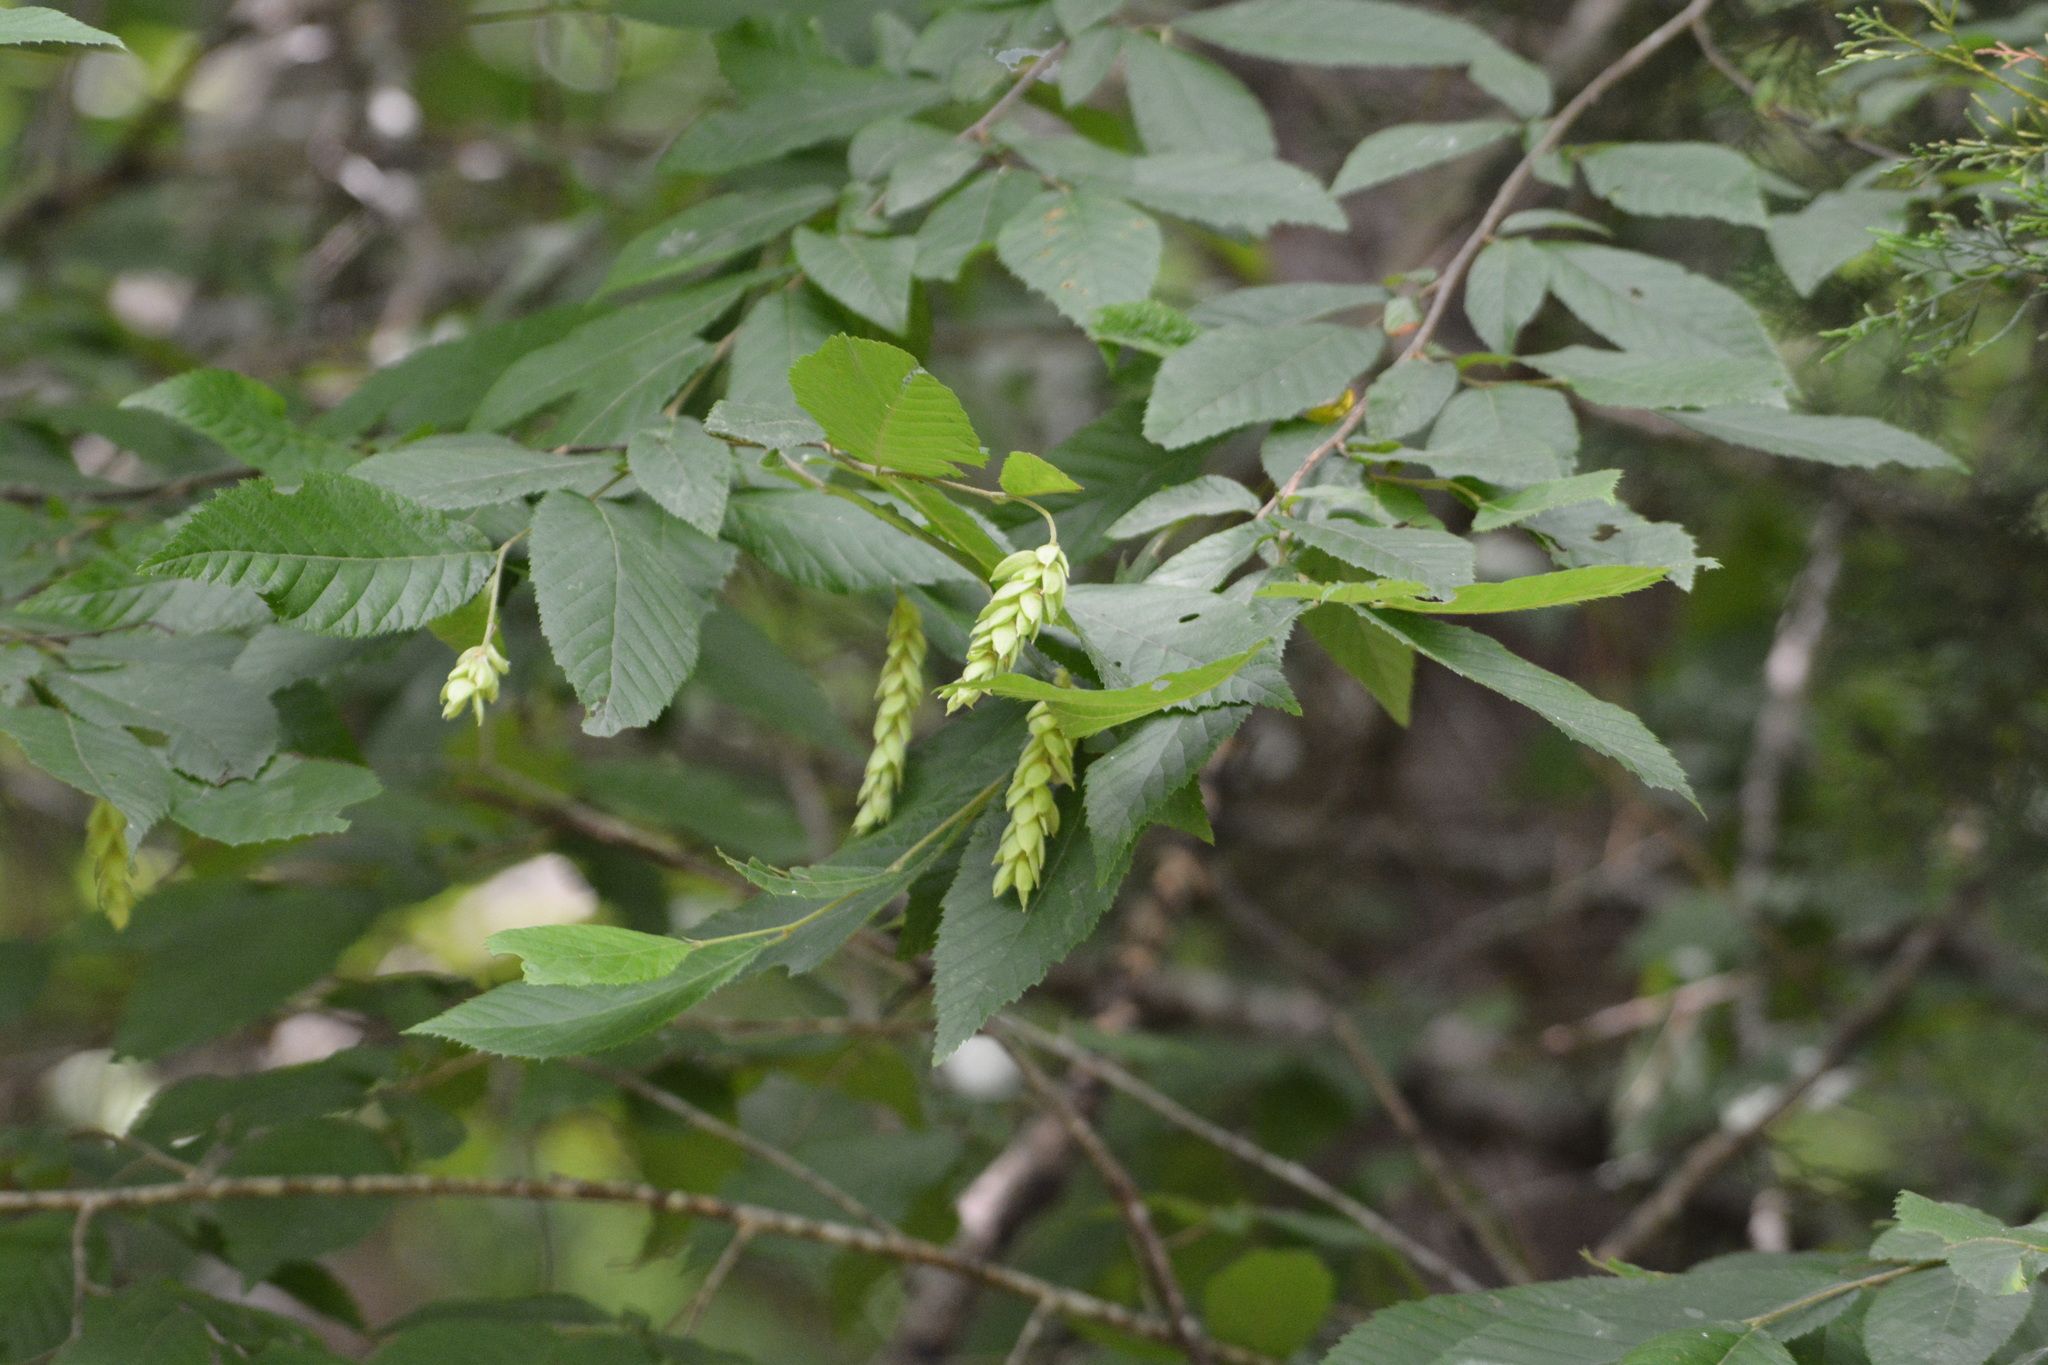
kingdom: Plantae
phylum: Tracheophyta
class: Magnoliopsida
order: Fagales
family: Betulaceae
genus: Ostrya
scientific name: Ostrya virginiana
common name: Ironwood
